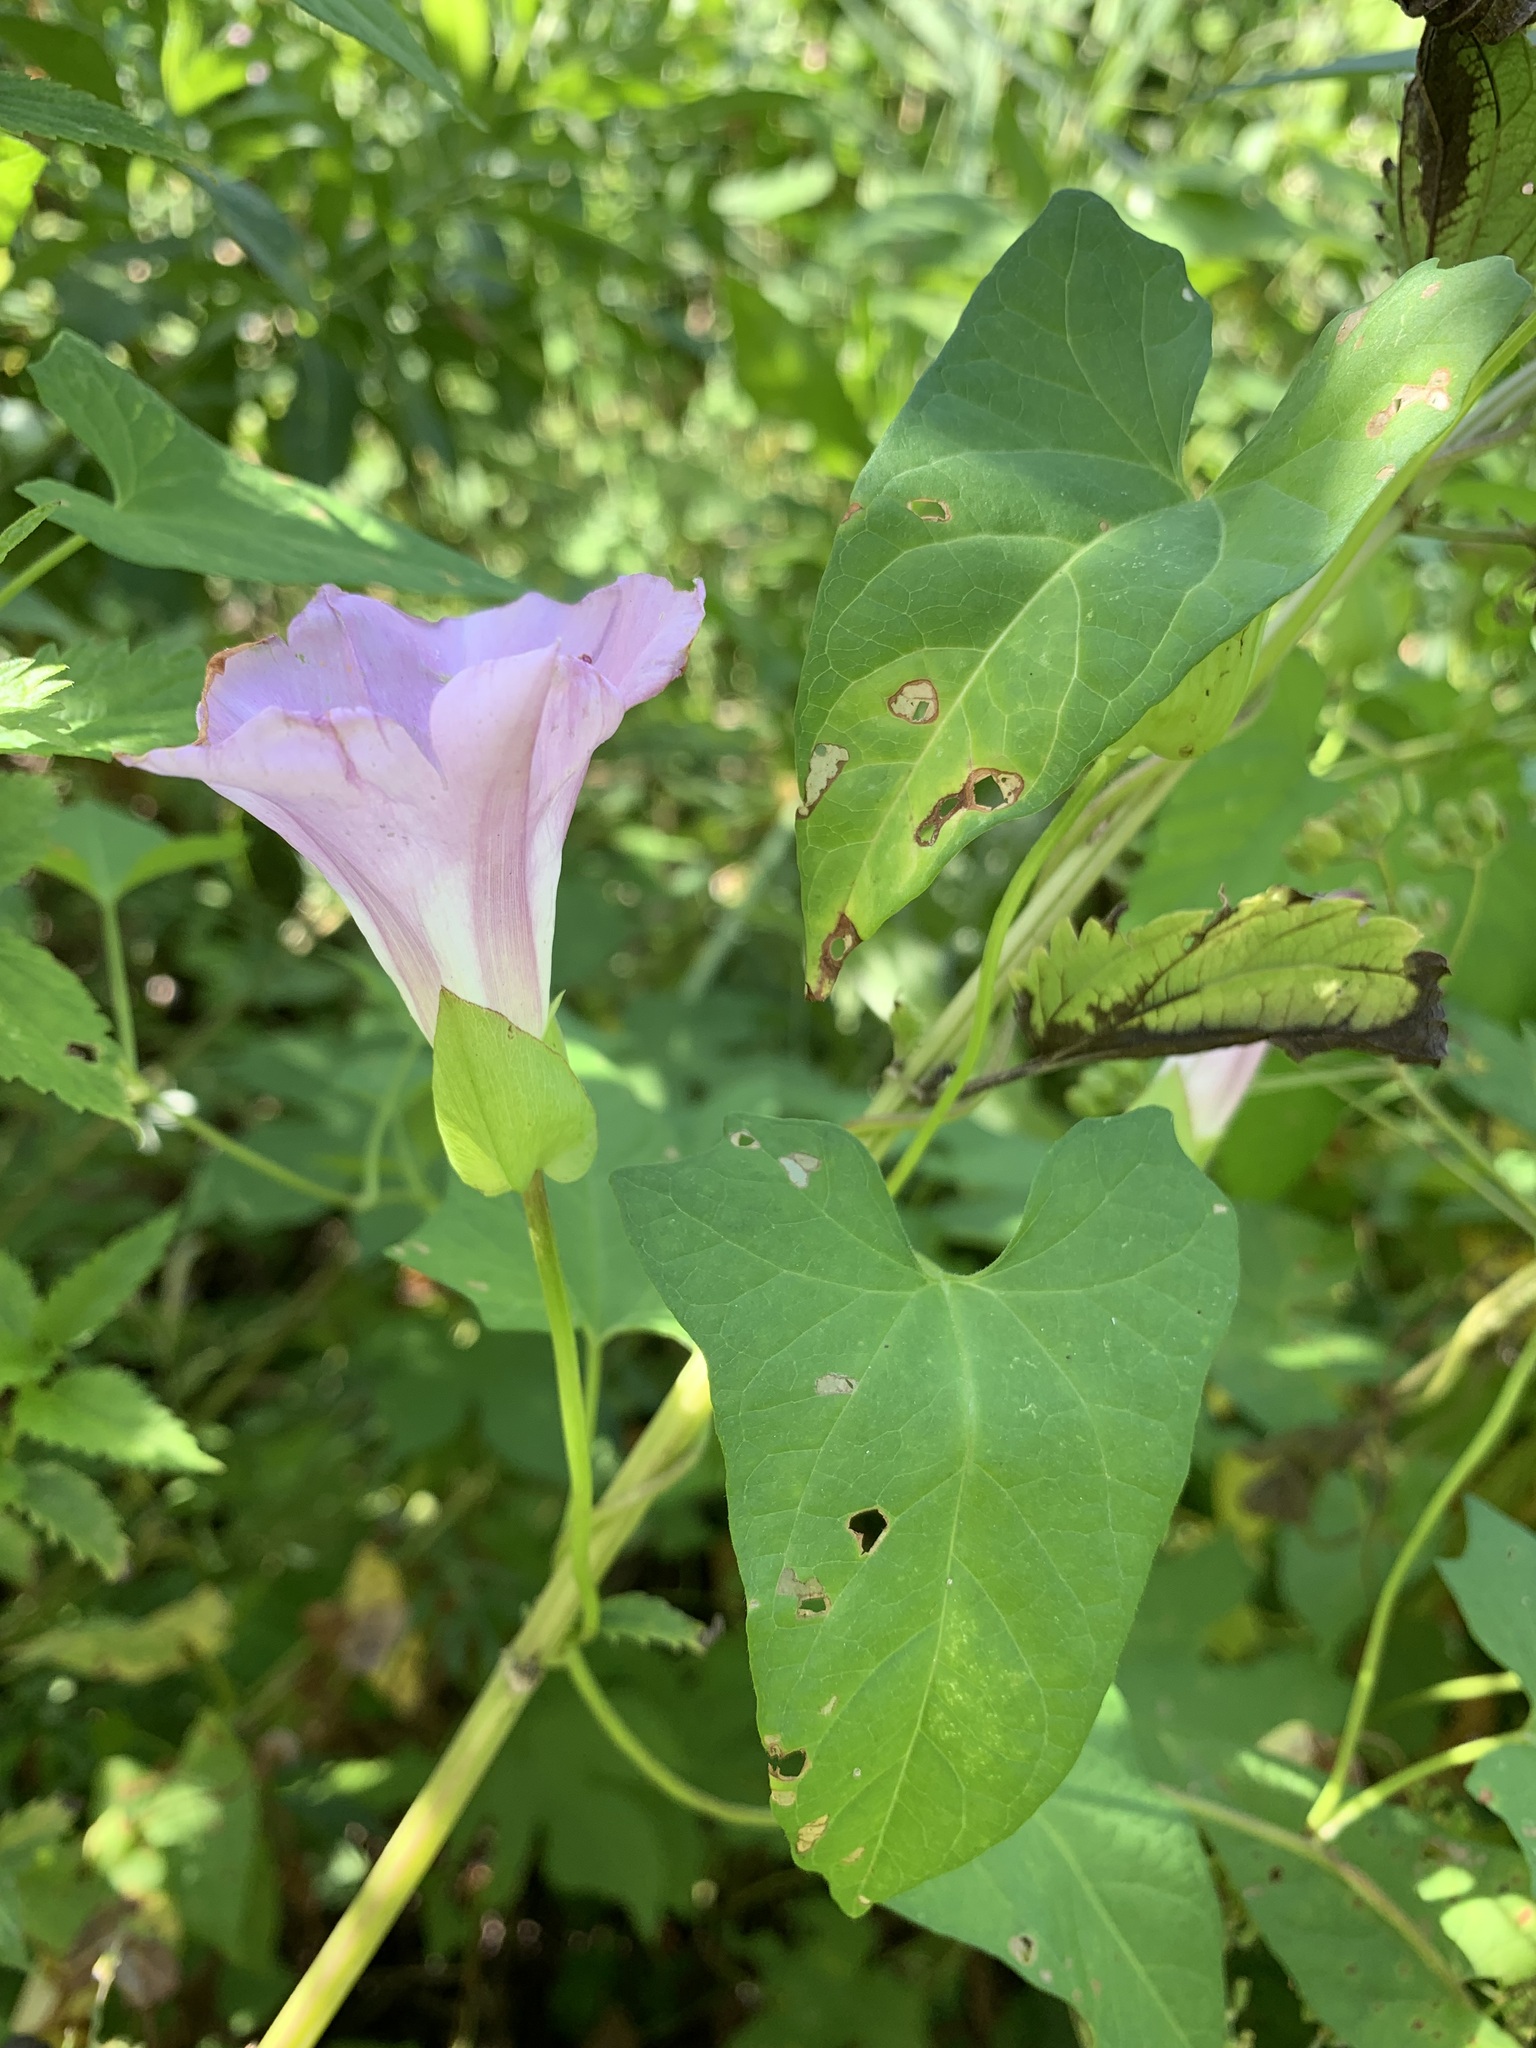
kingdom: Plantae
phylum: Tracheophyta
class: Magnoliopsida
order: Solanales
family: Convolvulaceae
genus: Calystegia
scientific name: Calystegia sepium
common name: Hedge bindweed
